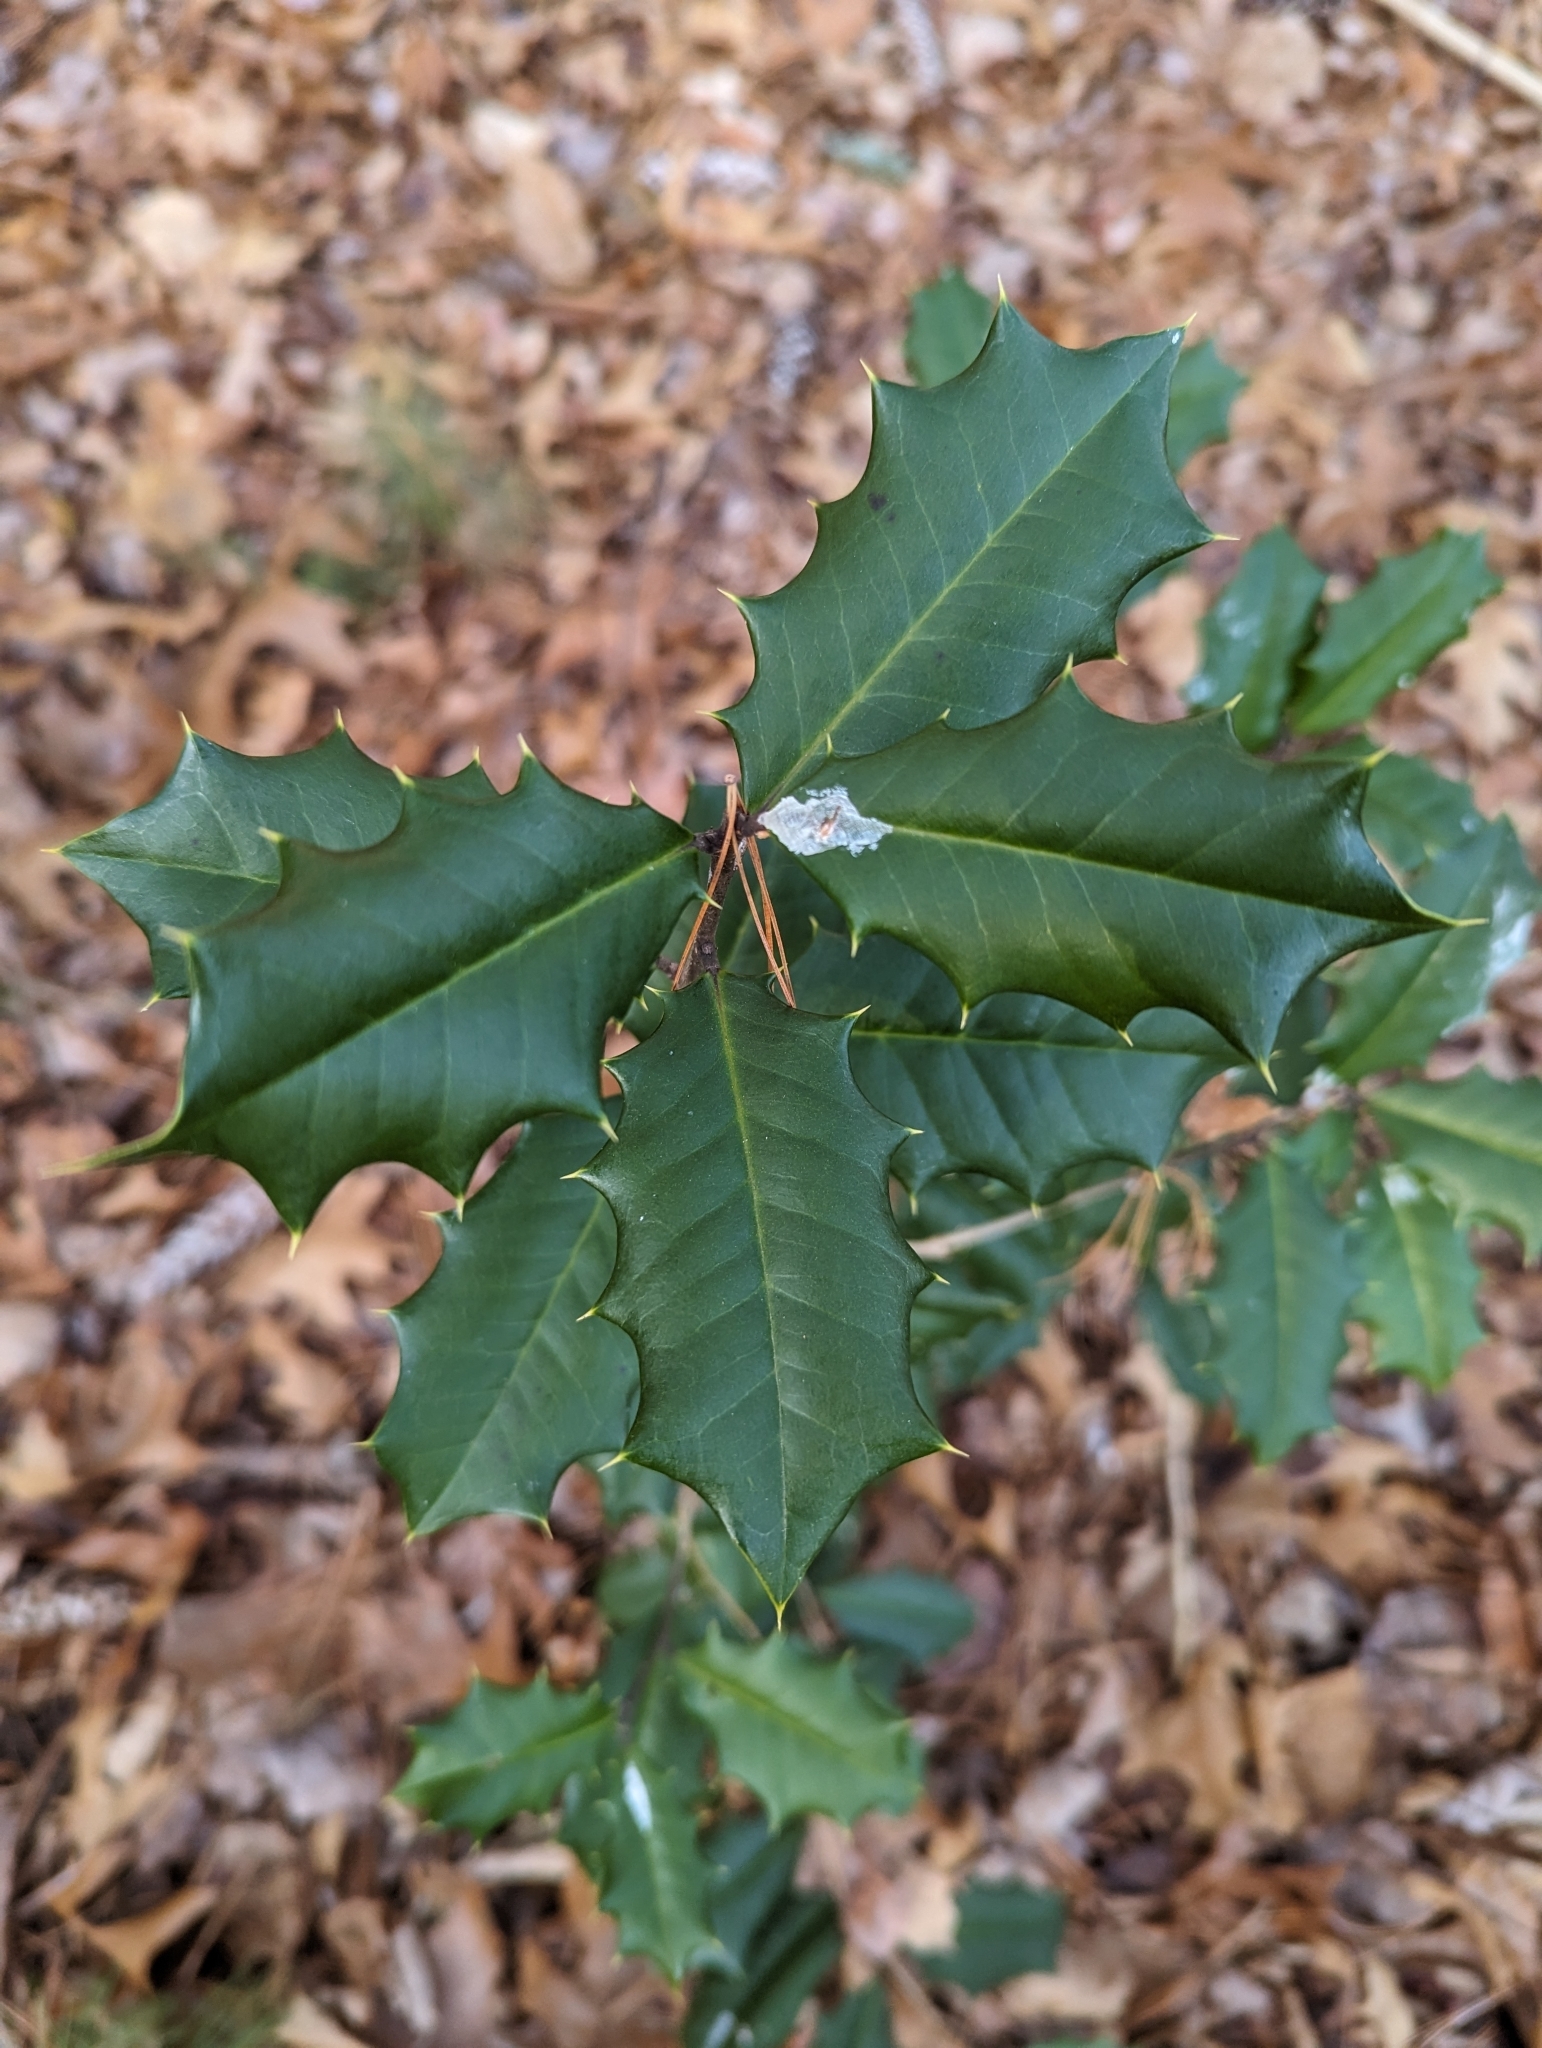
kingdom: Plantae
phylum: Tracheophyta
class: Magnoliopsida
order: Aquifoliales
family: Aquifoliaceae
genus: Ilex
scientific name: Ilex opaca
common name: American holly
